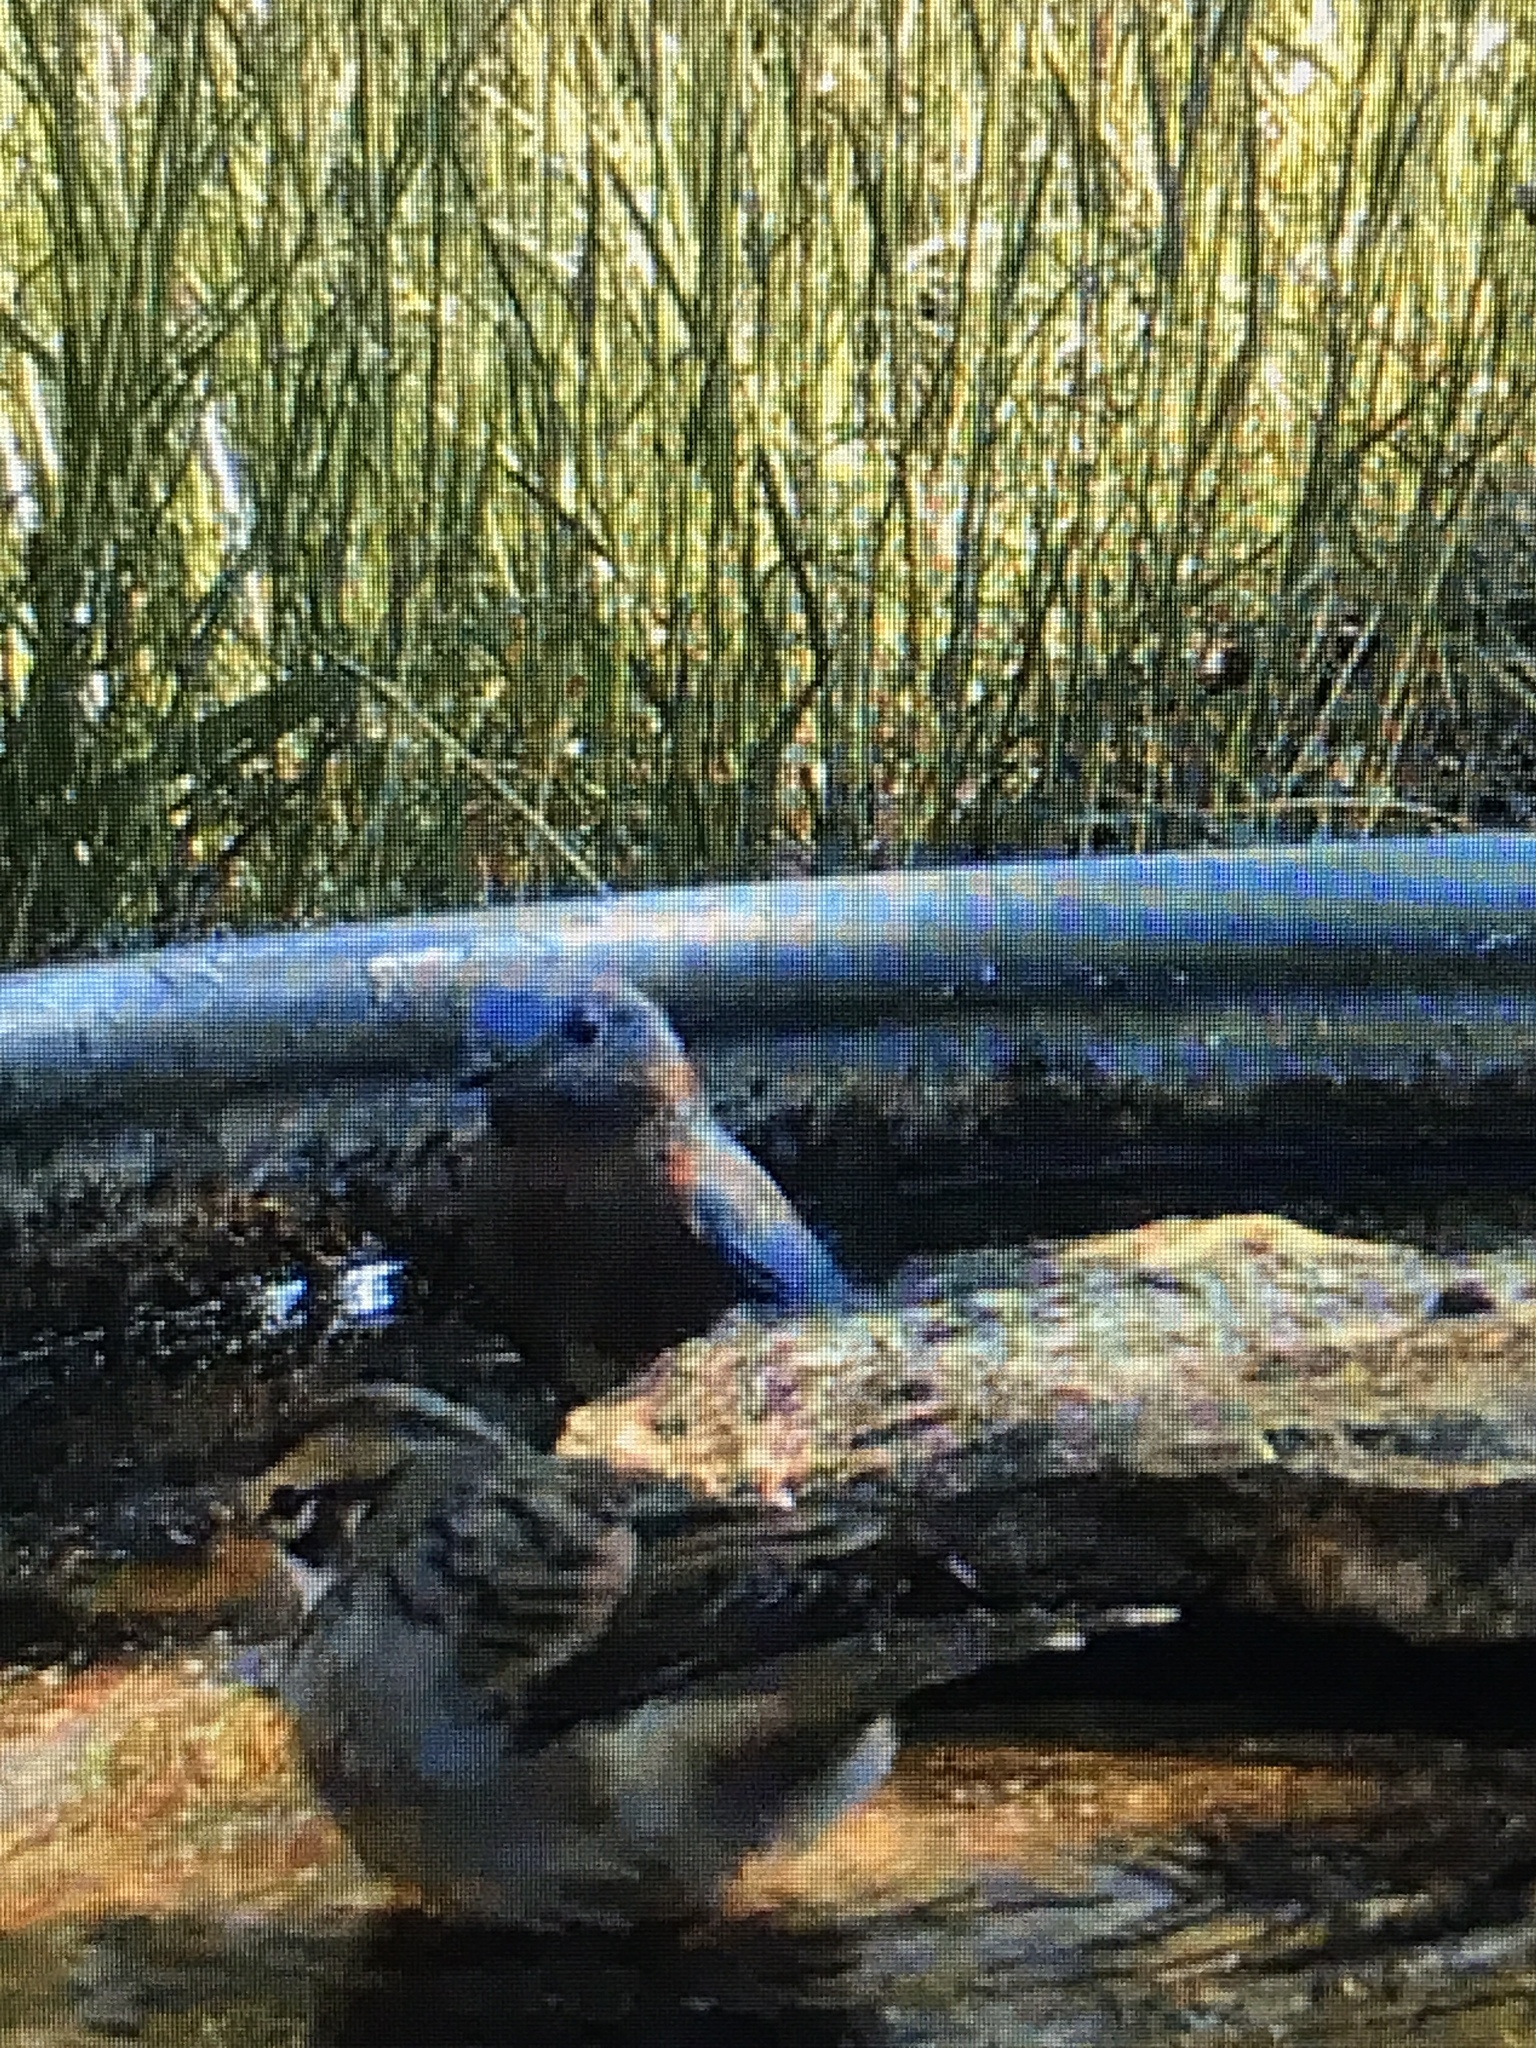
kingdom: Animalia
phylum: Chordata
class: Aves
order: Passeriformes
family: Turdidae
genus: Sialia
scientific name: Sialia sialis
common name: Eastern bluebird
